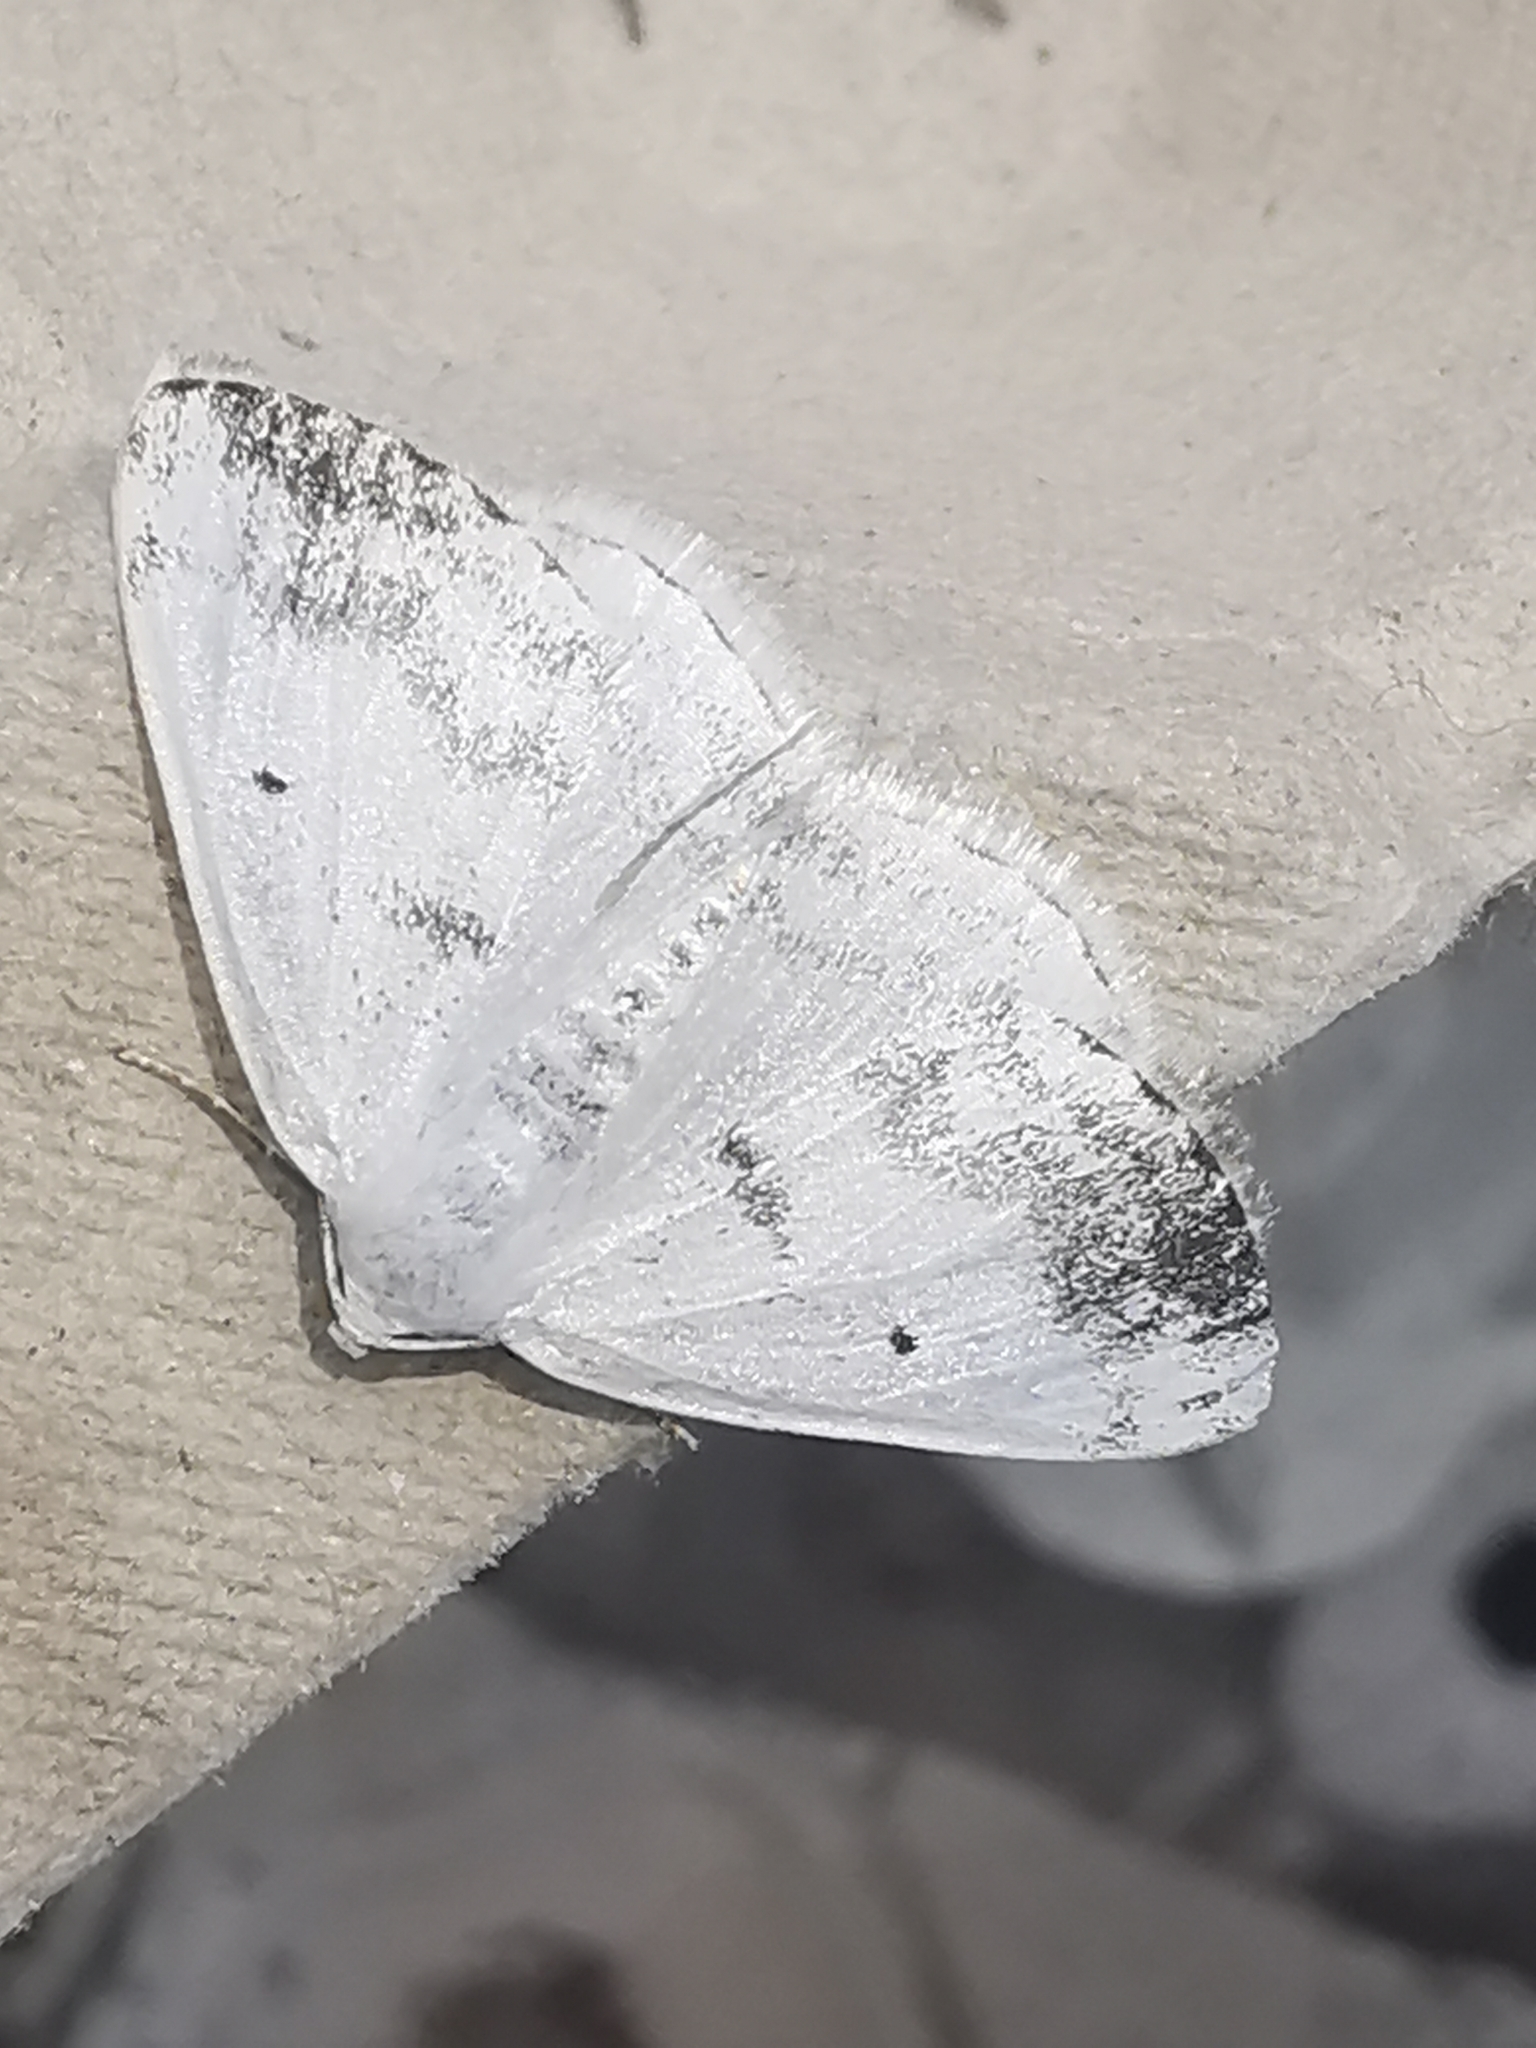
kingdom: Animalia
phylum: Arthropoda
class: Insecta
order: Lepidoptera
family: Geometridae
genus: Lomographa
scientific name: Lomographa temerata
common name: Clouded silver
